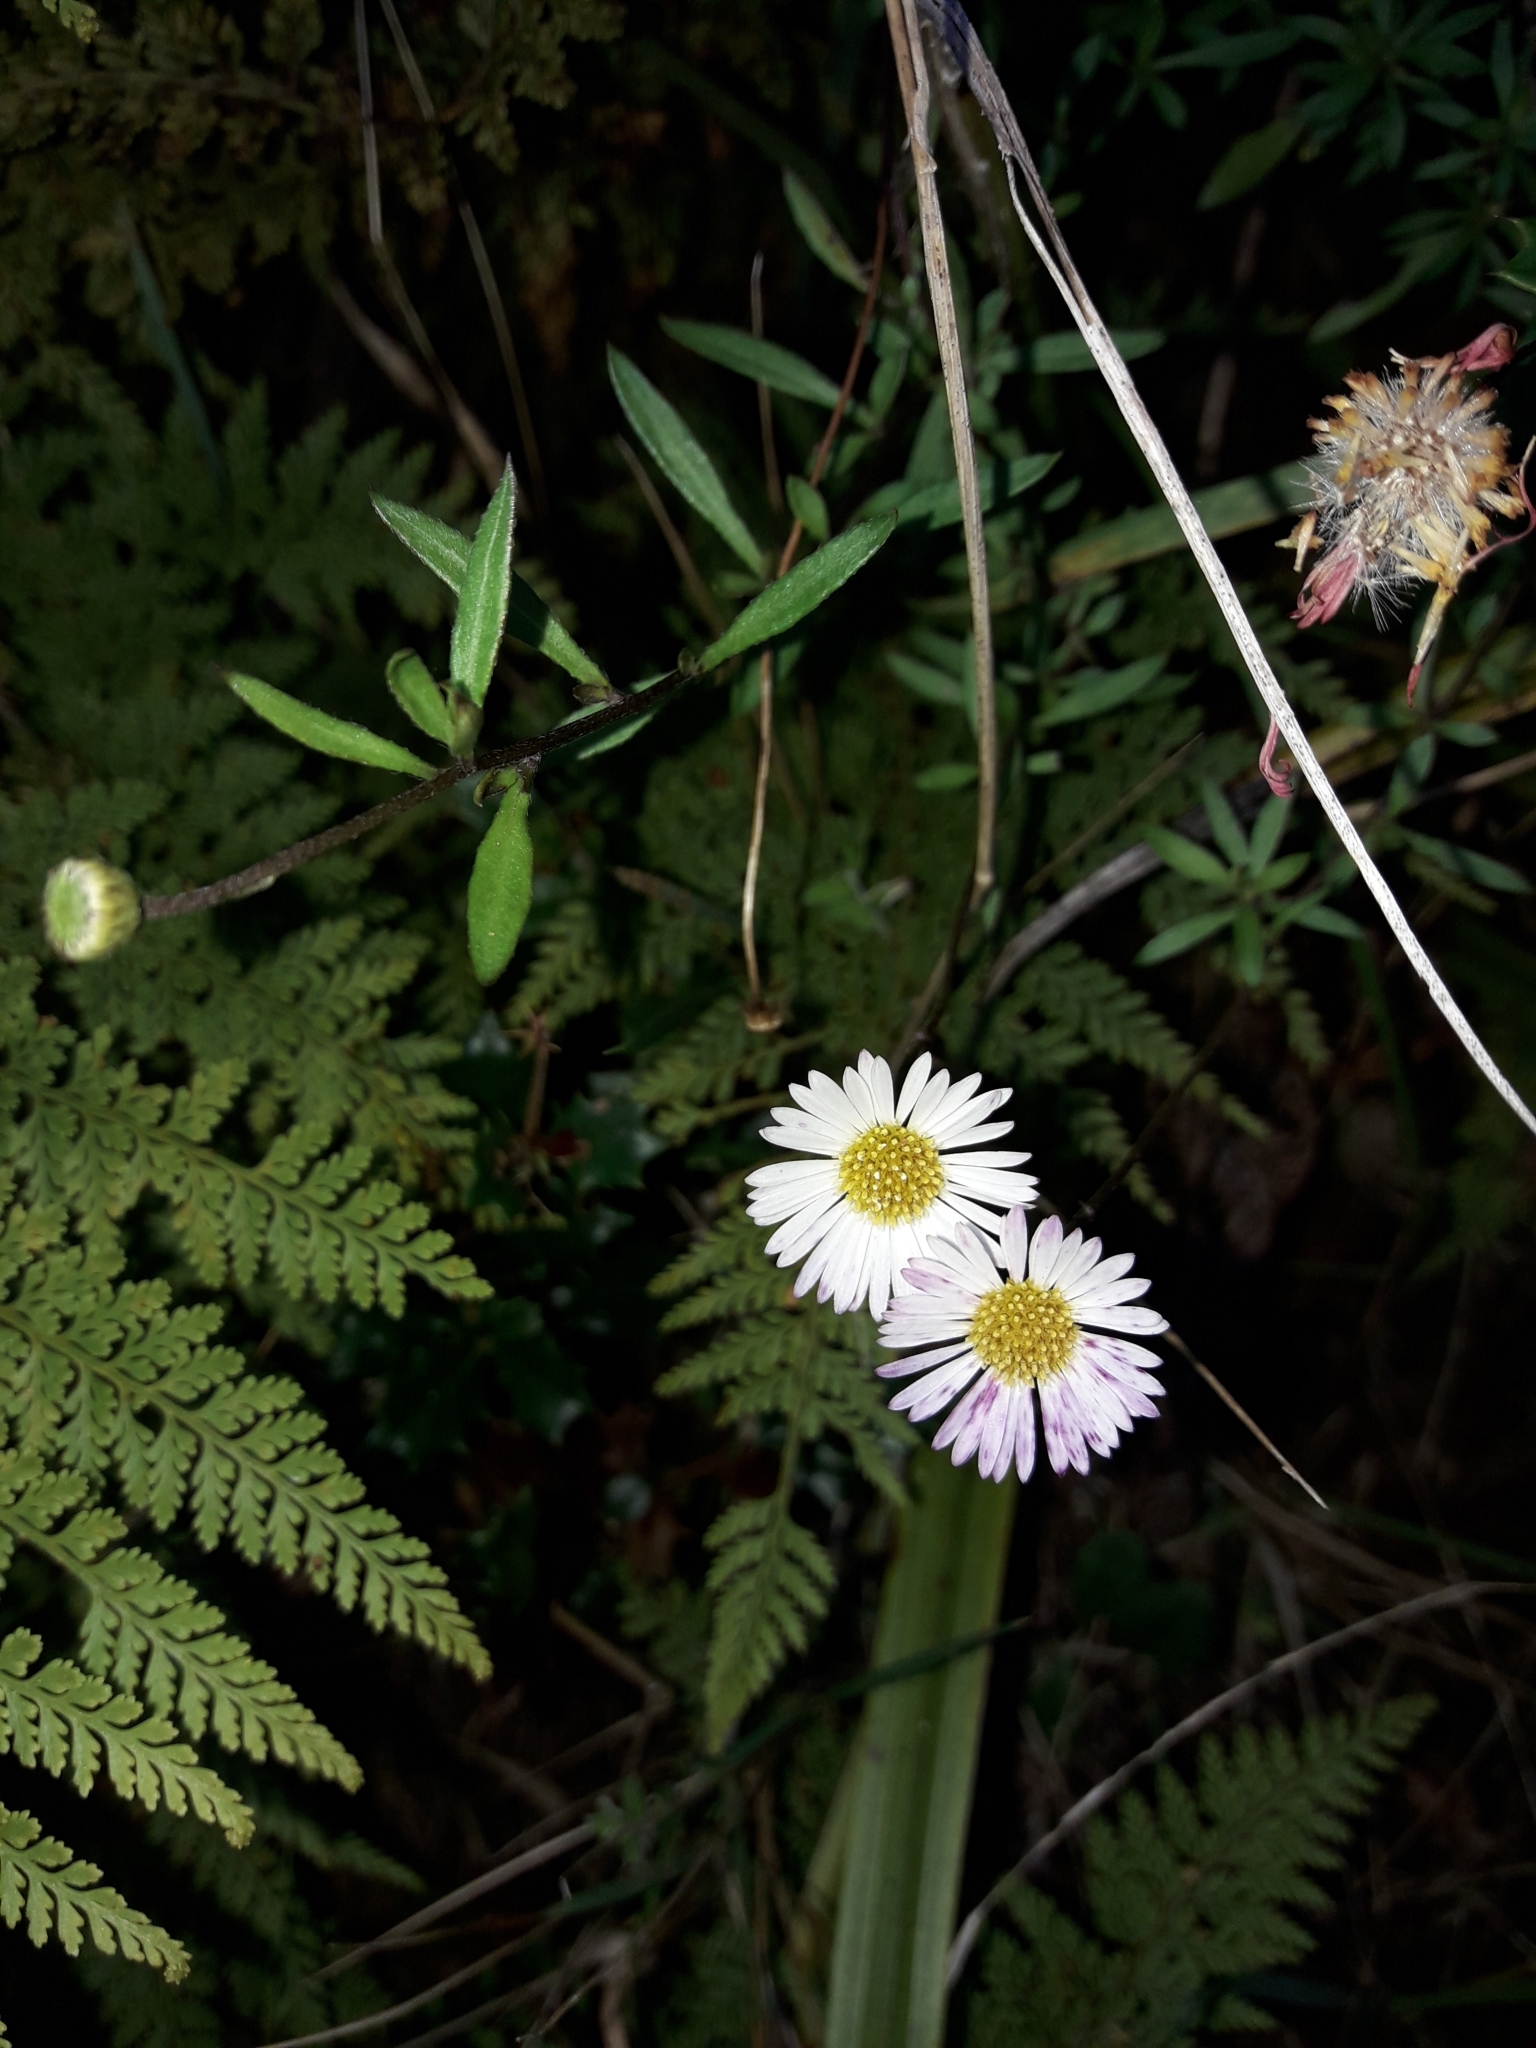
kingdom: Plantae
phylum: Tracheophyta
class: Magnoliopsida
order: Asterales
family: Asteraceae
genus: Erigeron
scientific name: Erigeron karvinskianus
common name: Mexican fleabane
